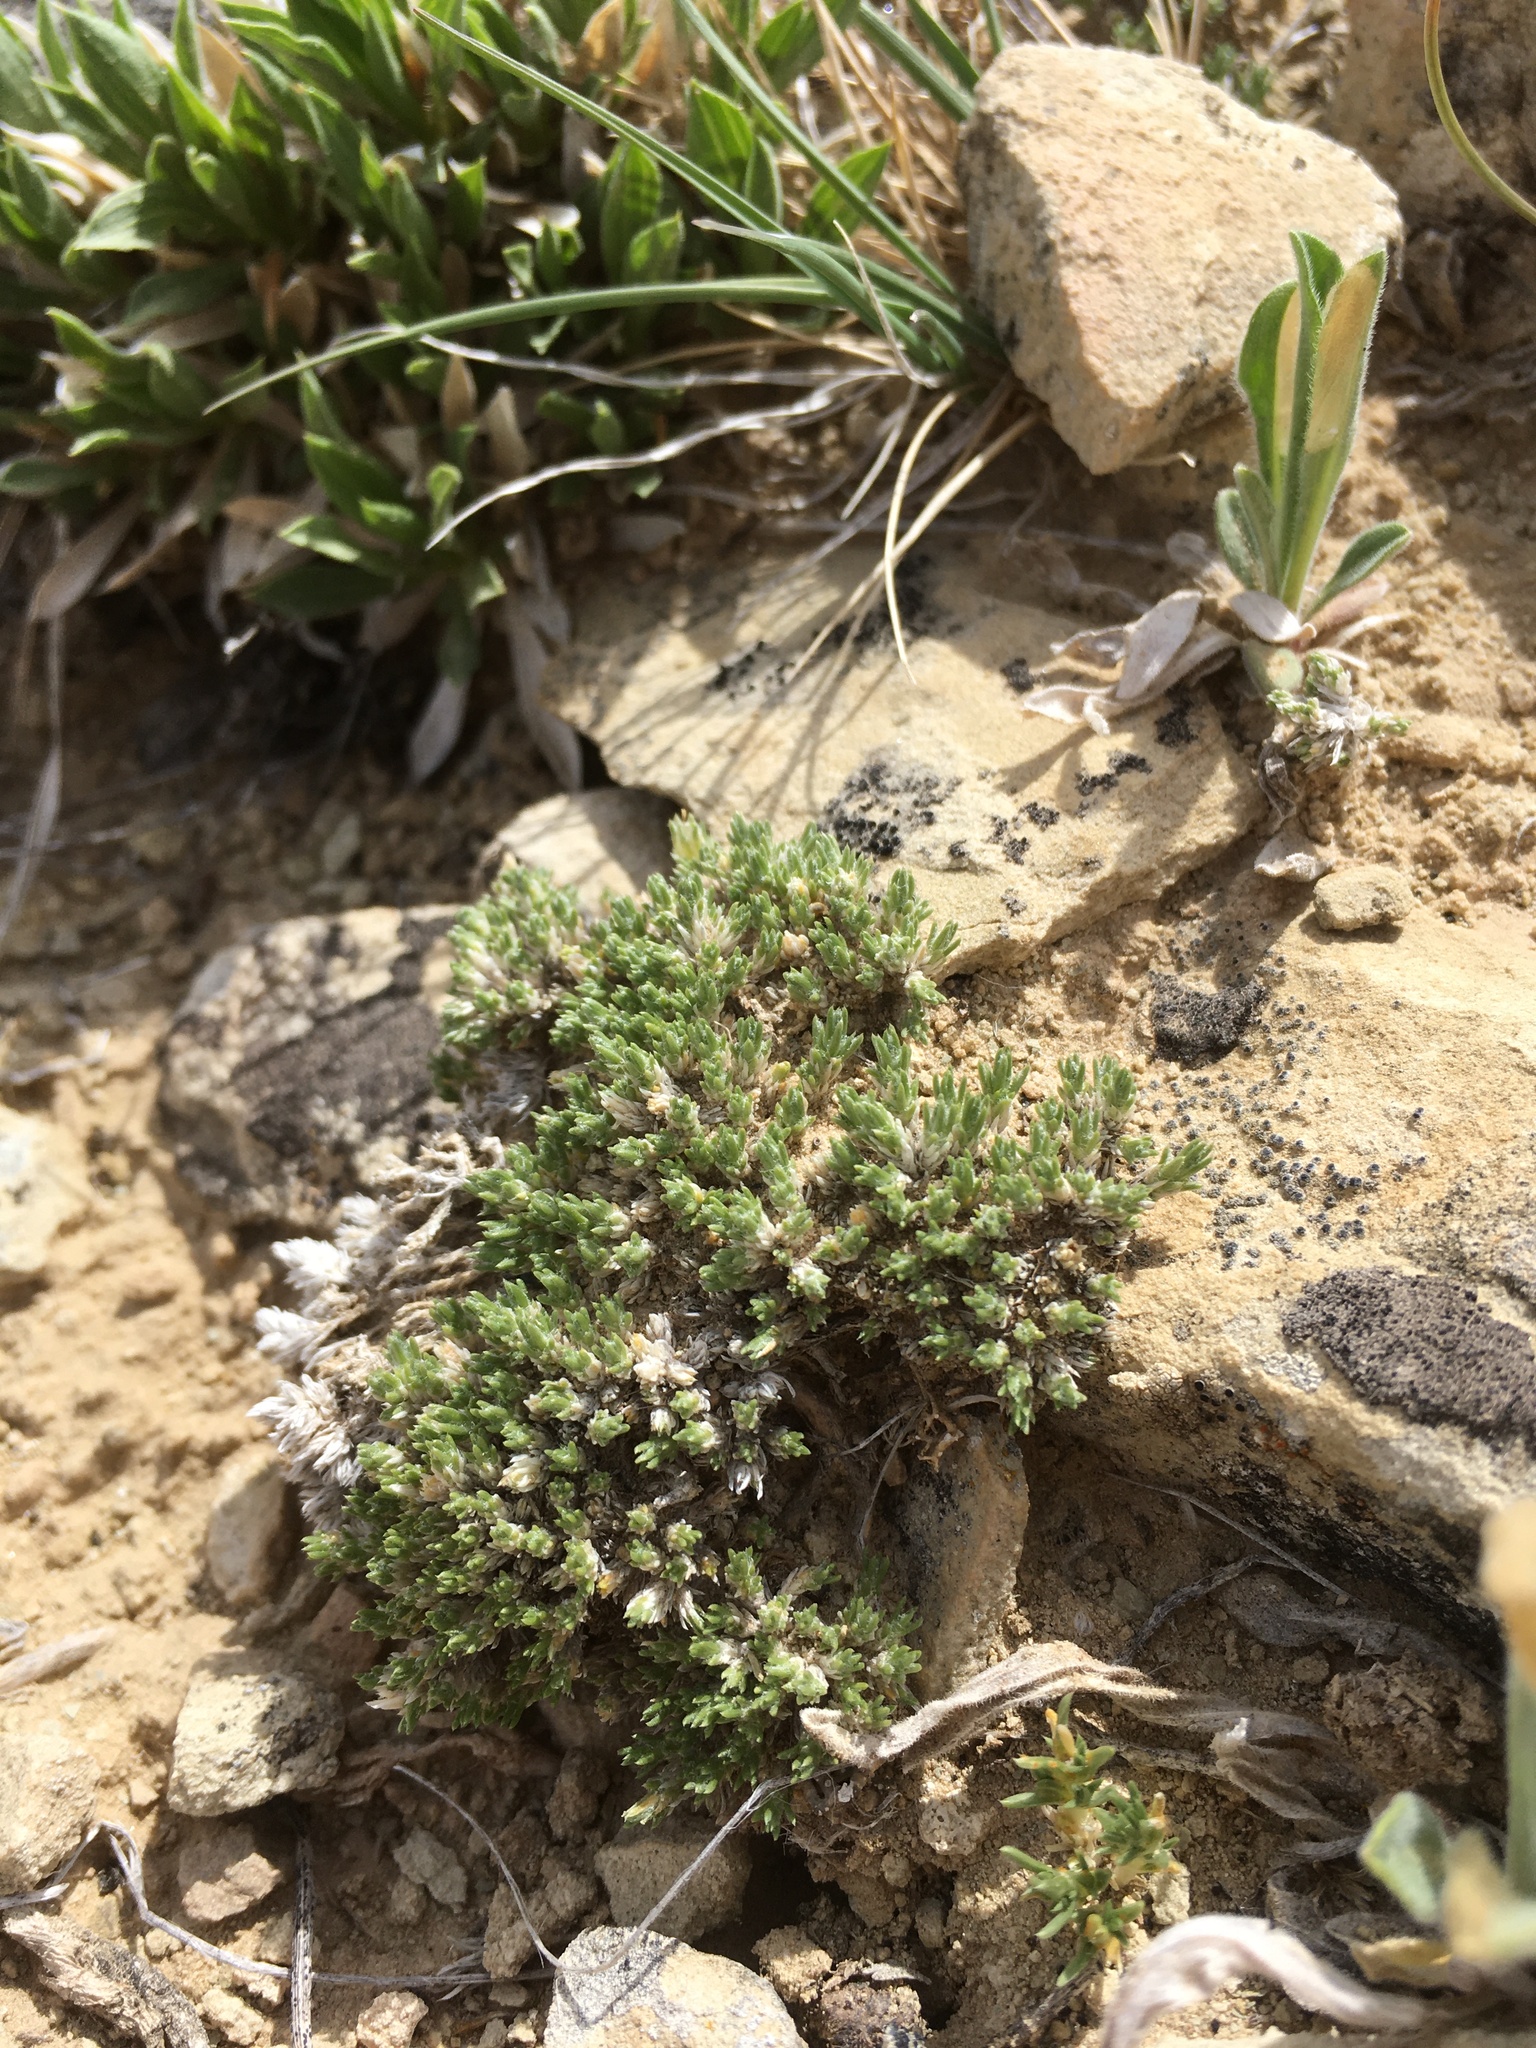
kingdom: Plantae
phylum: Tracheophyta
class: Magnoliopsida
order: Ericales
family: Polemoniaceae
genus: Phlox
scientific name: Phlox hoodii
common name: Moss phlox
